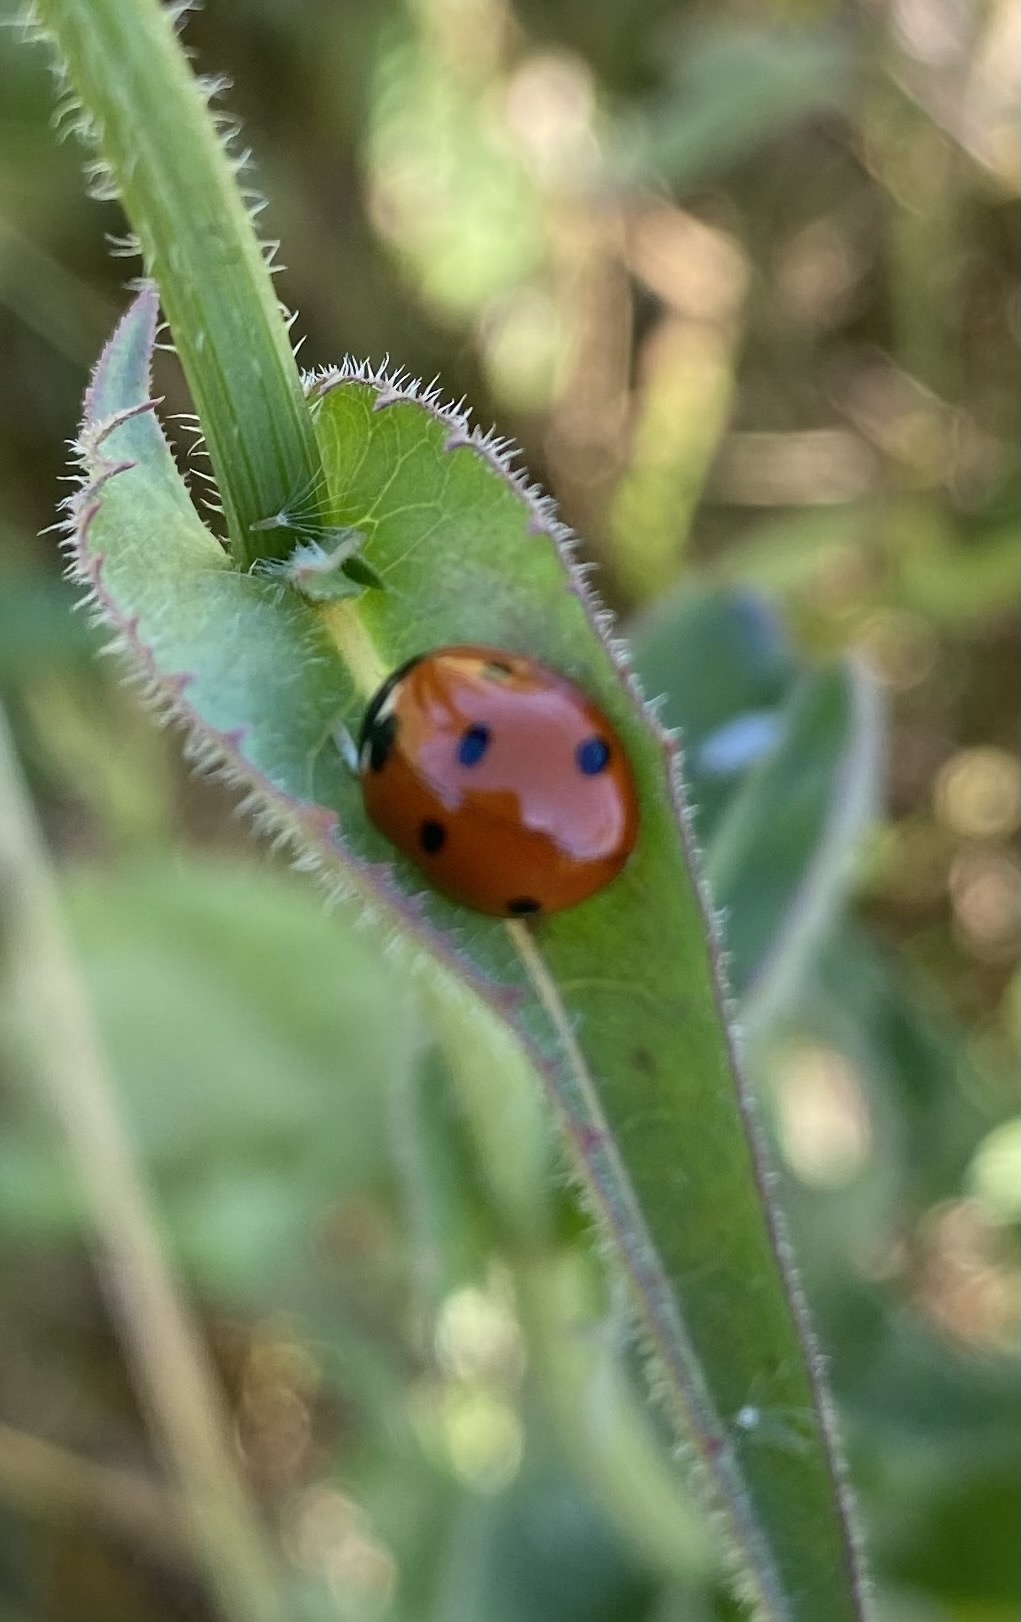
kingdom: Animalia
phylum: Arthropoda
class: Insecta
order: Coleoptera
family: Coccinellidae
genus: Coccinella
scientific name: Coccinella septempunctata
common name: Sevenspotted lady beetle
